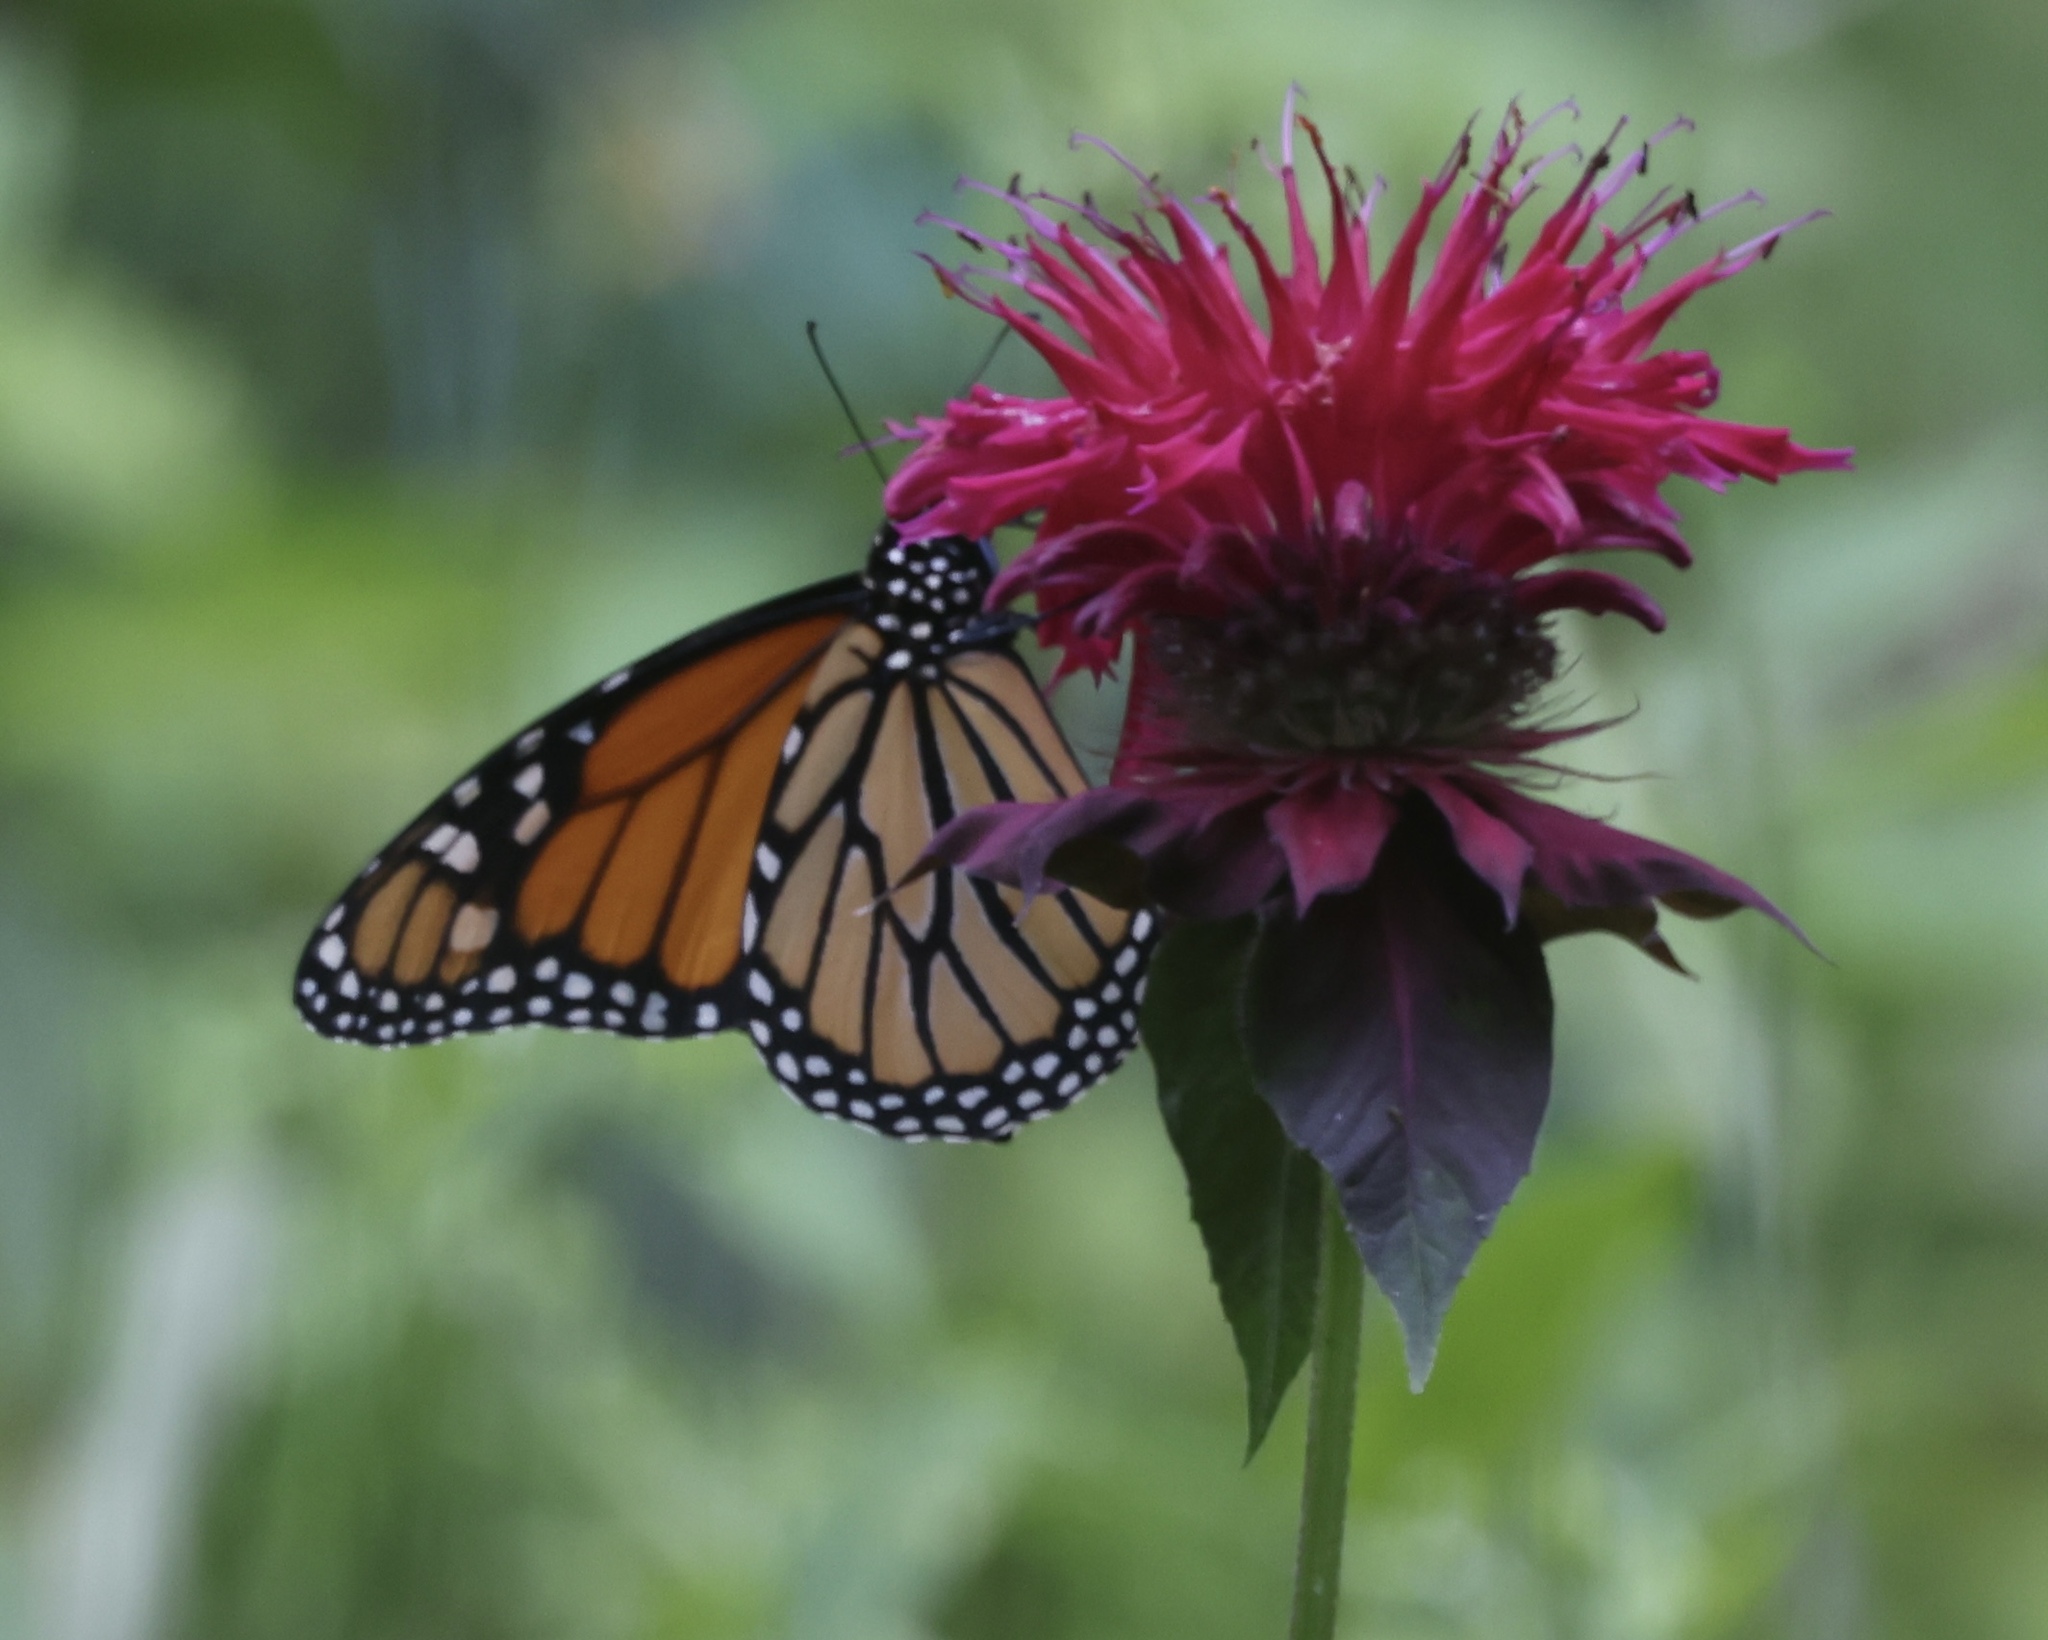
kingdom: Animalia
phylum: Arthropoda
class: Insecta
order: Lepidoptera
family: Nymphalidae
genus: Danaus
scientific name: Danaus plexippus
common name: Monarch
